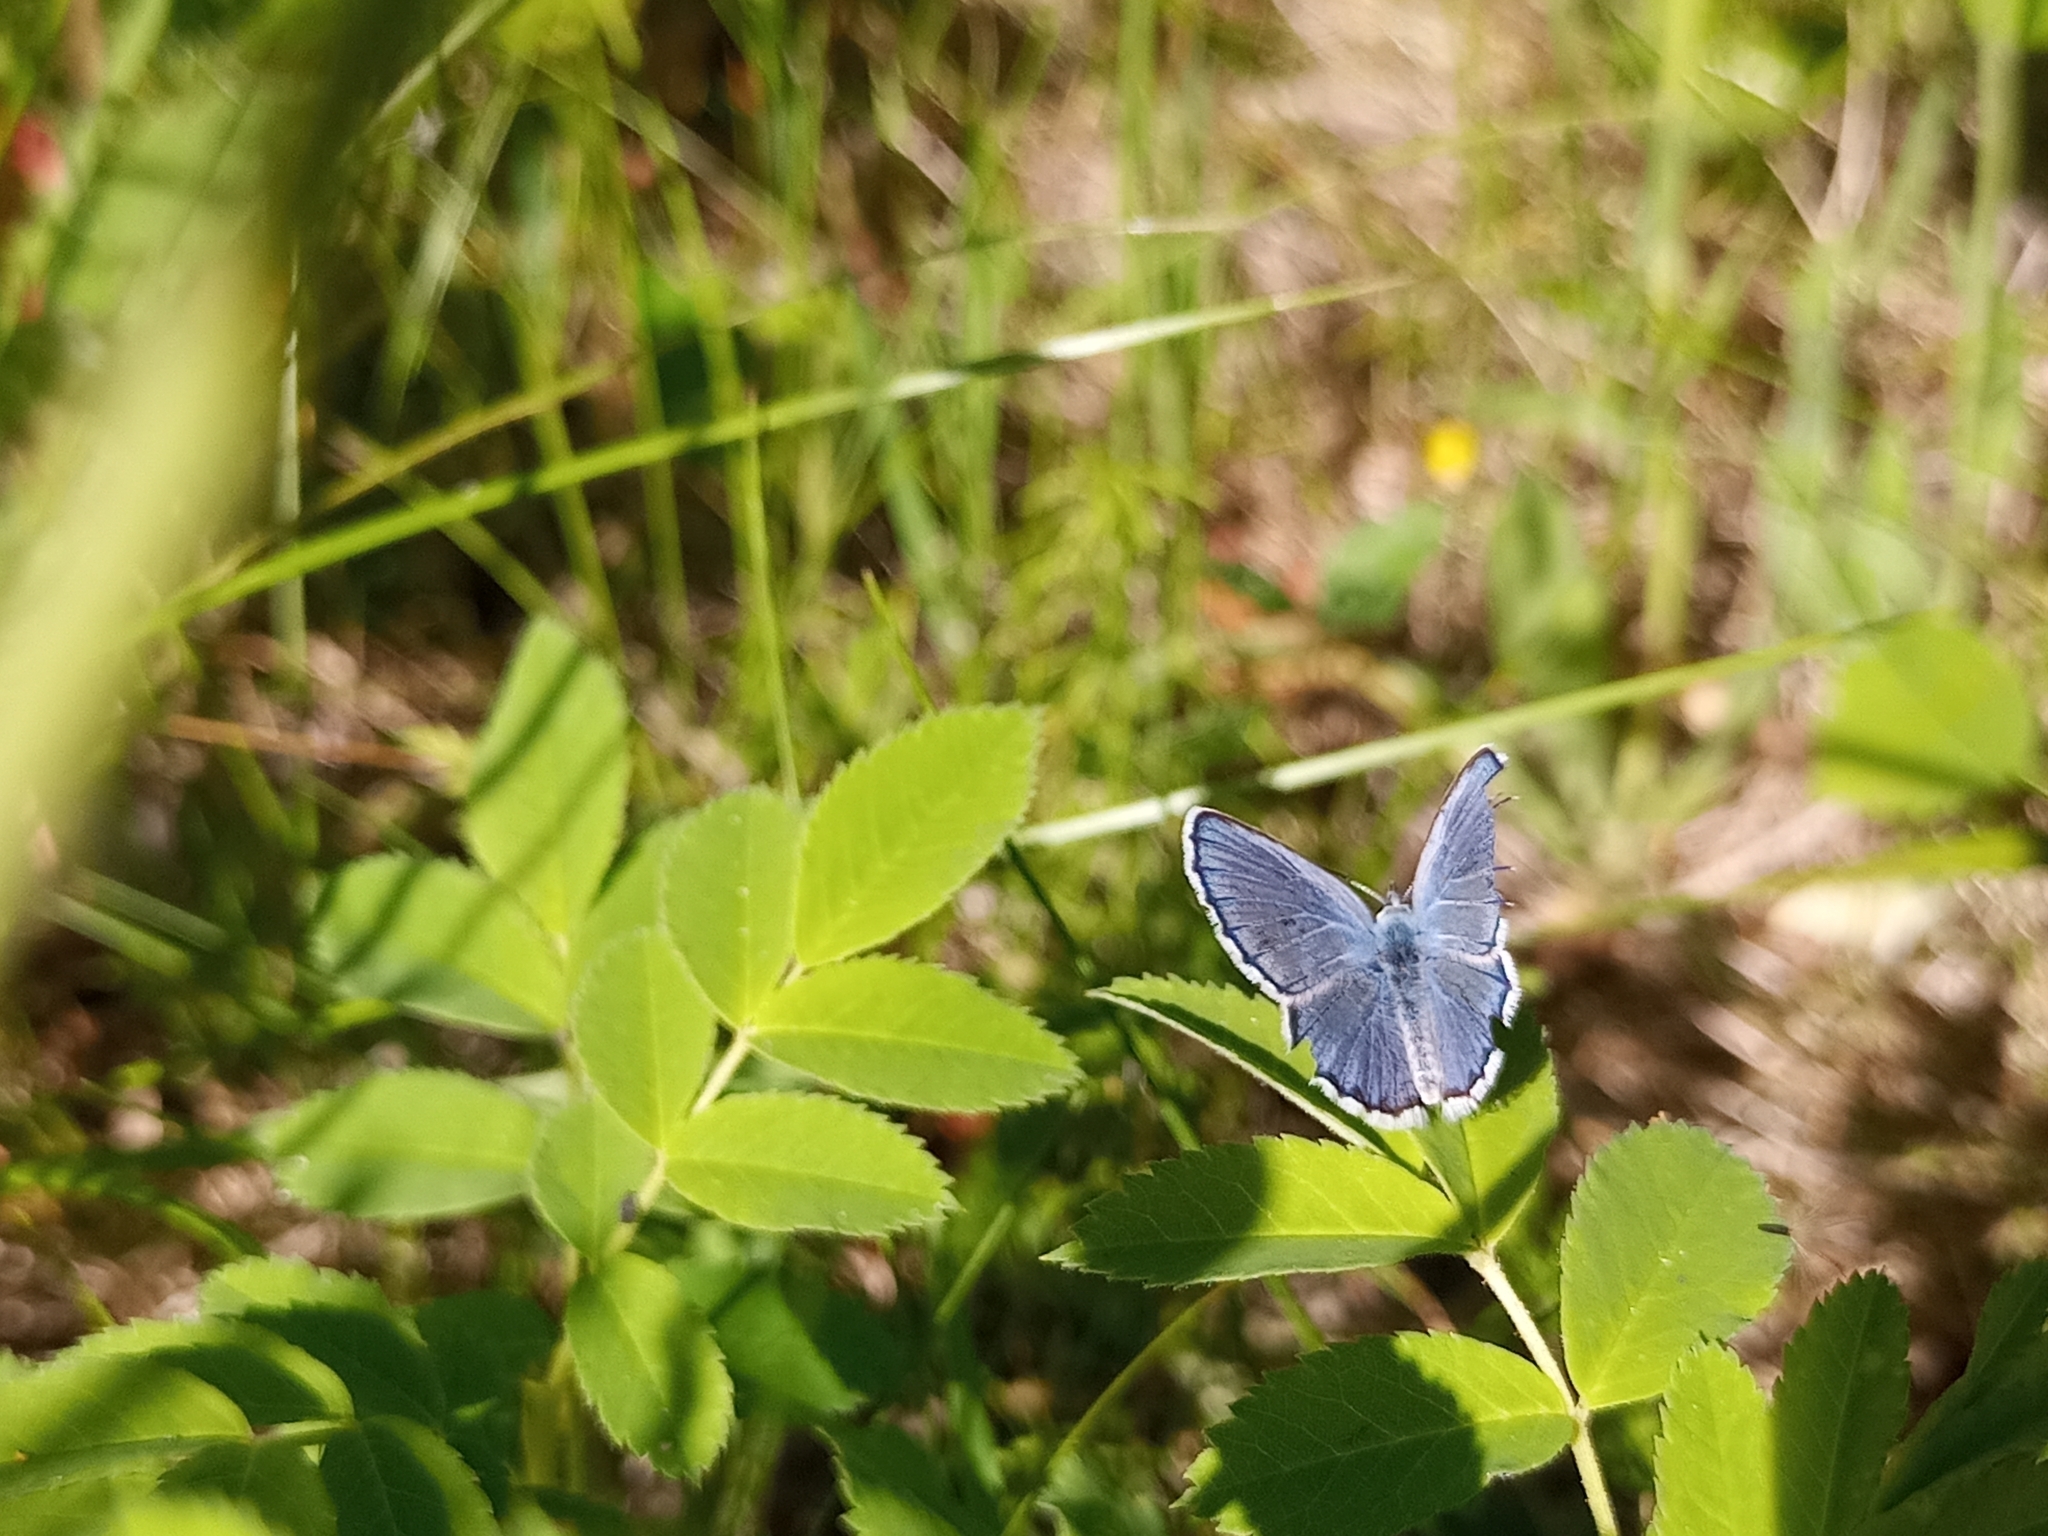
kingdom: Animalia
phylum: Arthropoda
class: Insecta
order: Lepidoptera
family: Lycaenidae
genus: Lycaeides
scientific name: Lycaeides idas
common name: Northern blue
